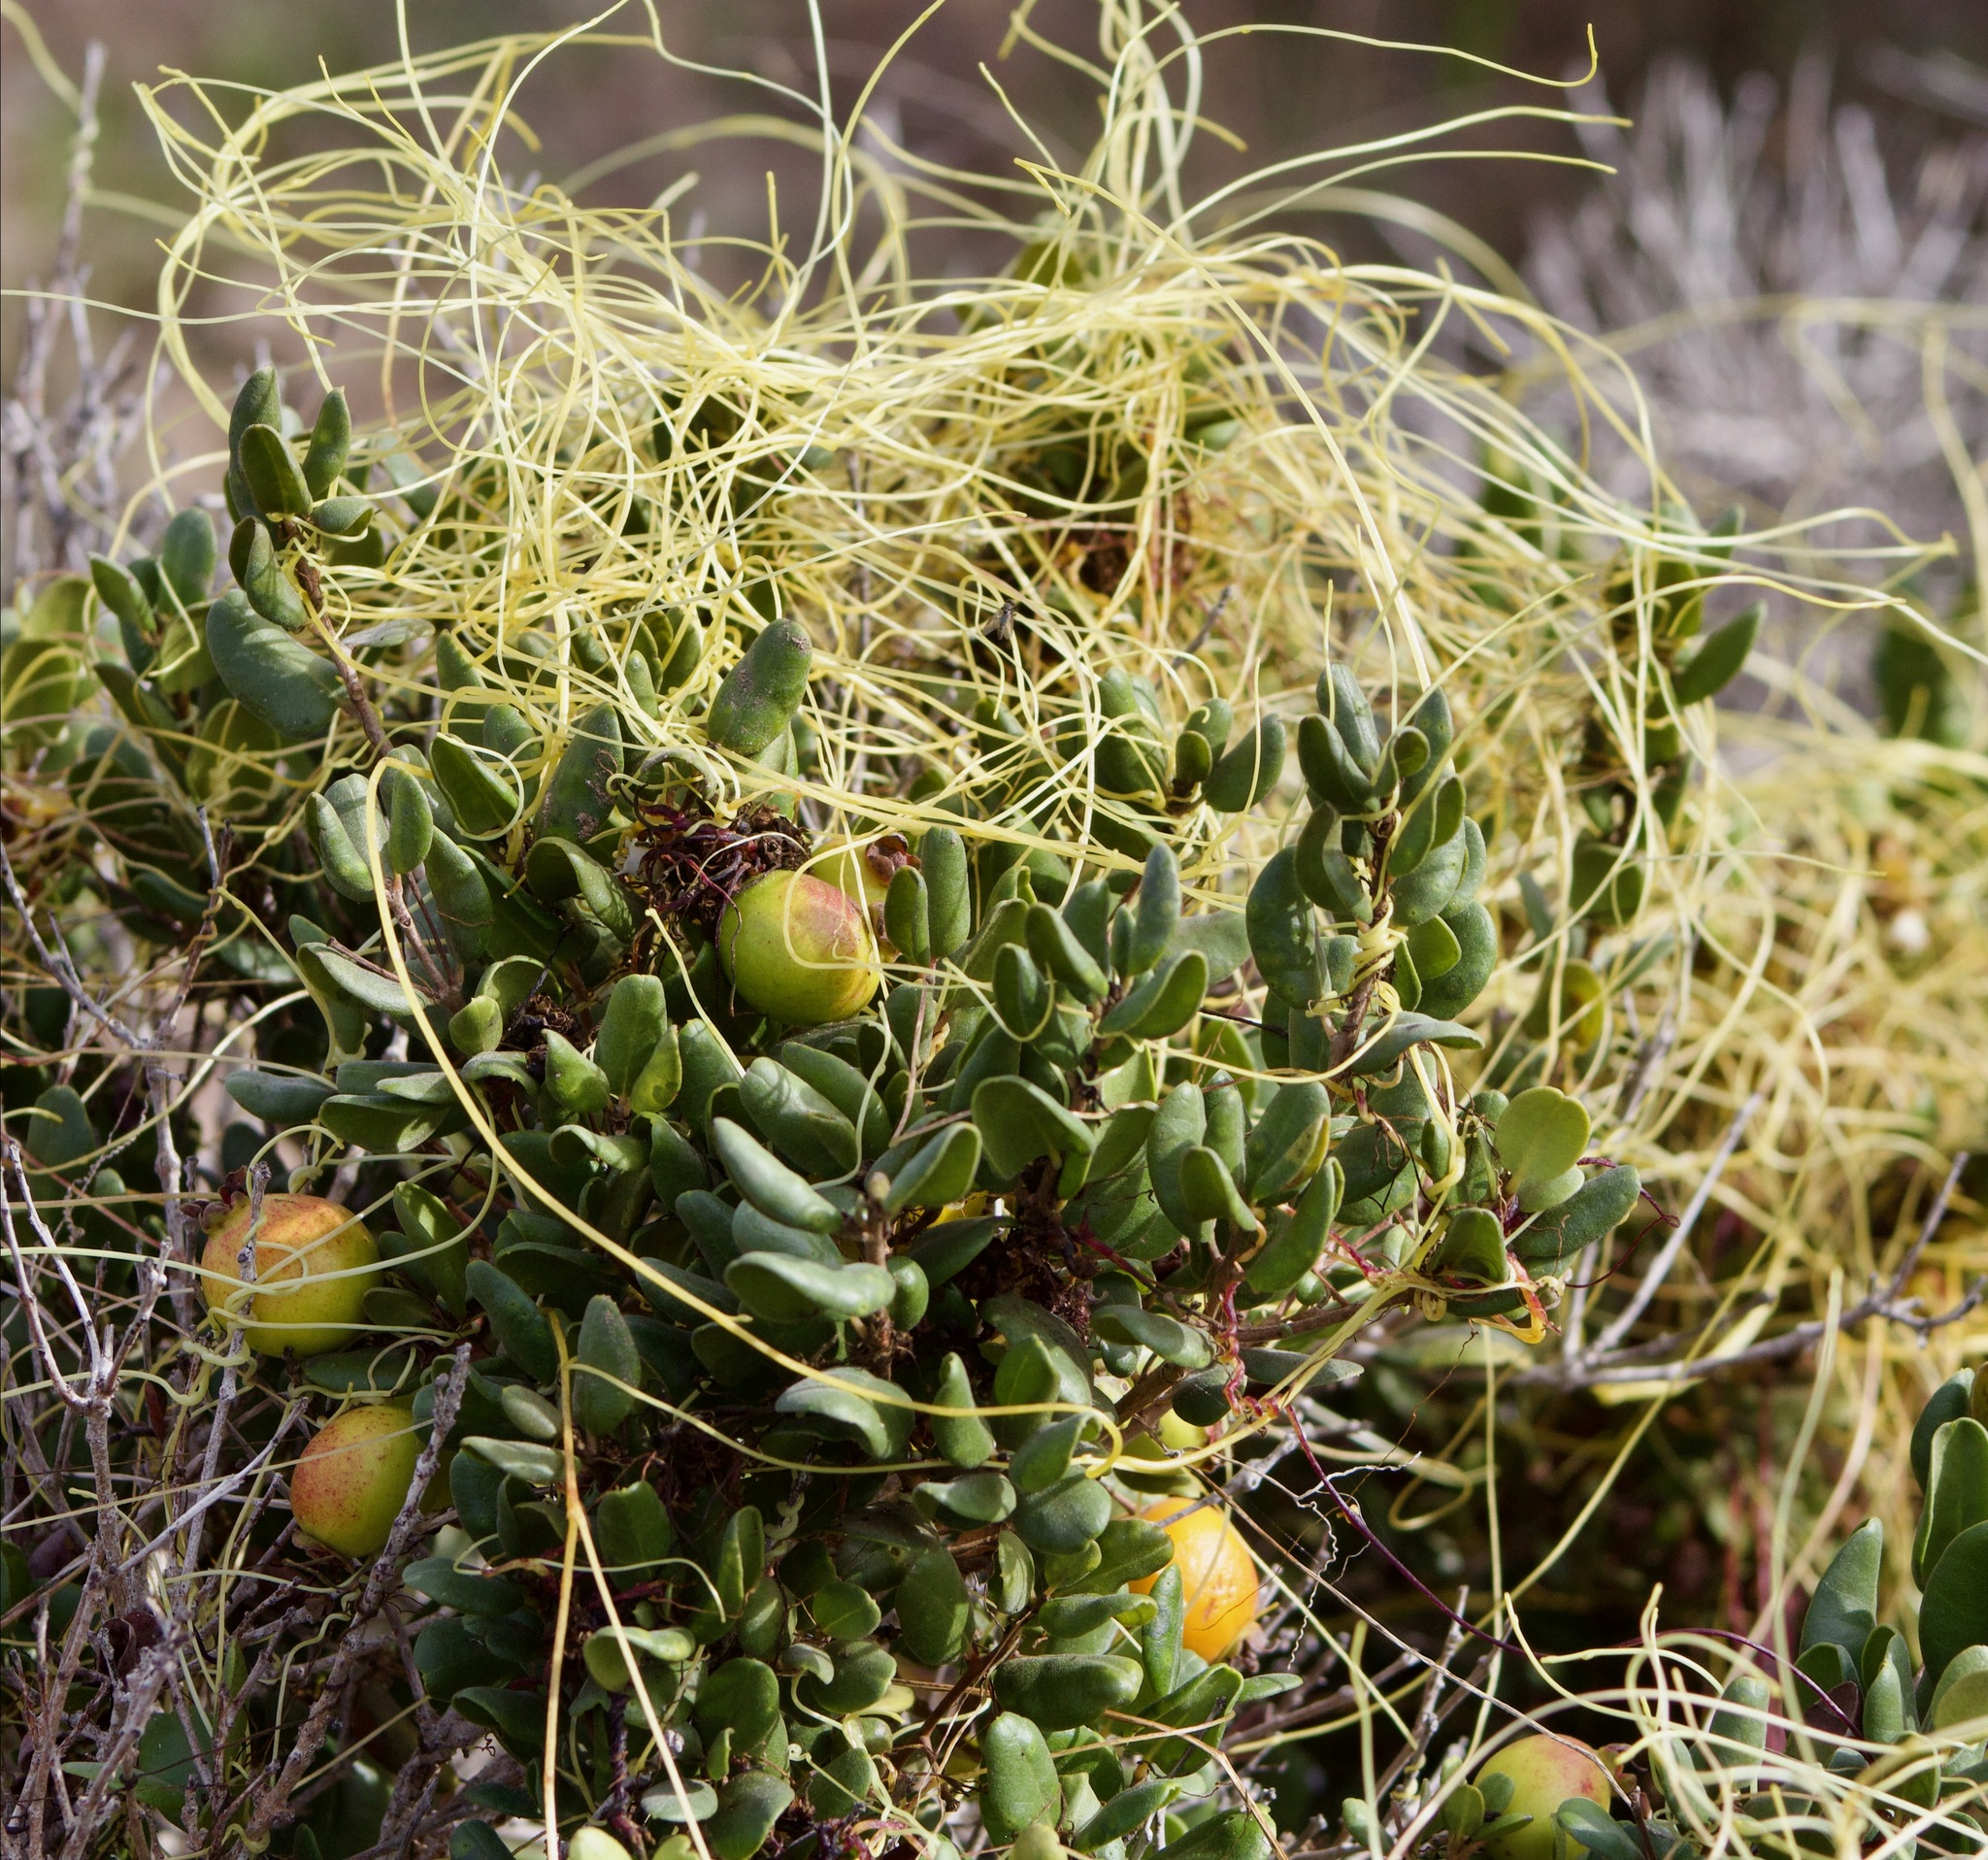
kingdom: Plantae
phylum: Tracheophyta
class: Magnoliopsida
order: Myrtales
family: Myrtaceae
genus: Myrcianthes
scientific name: Myrcianthes coquimbensis
